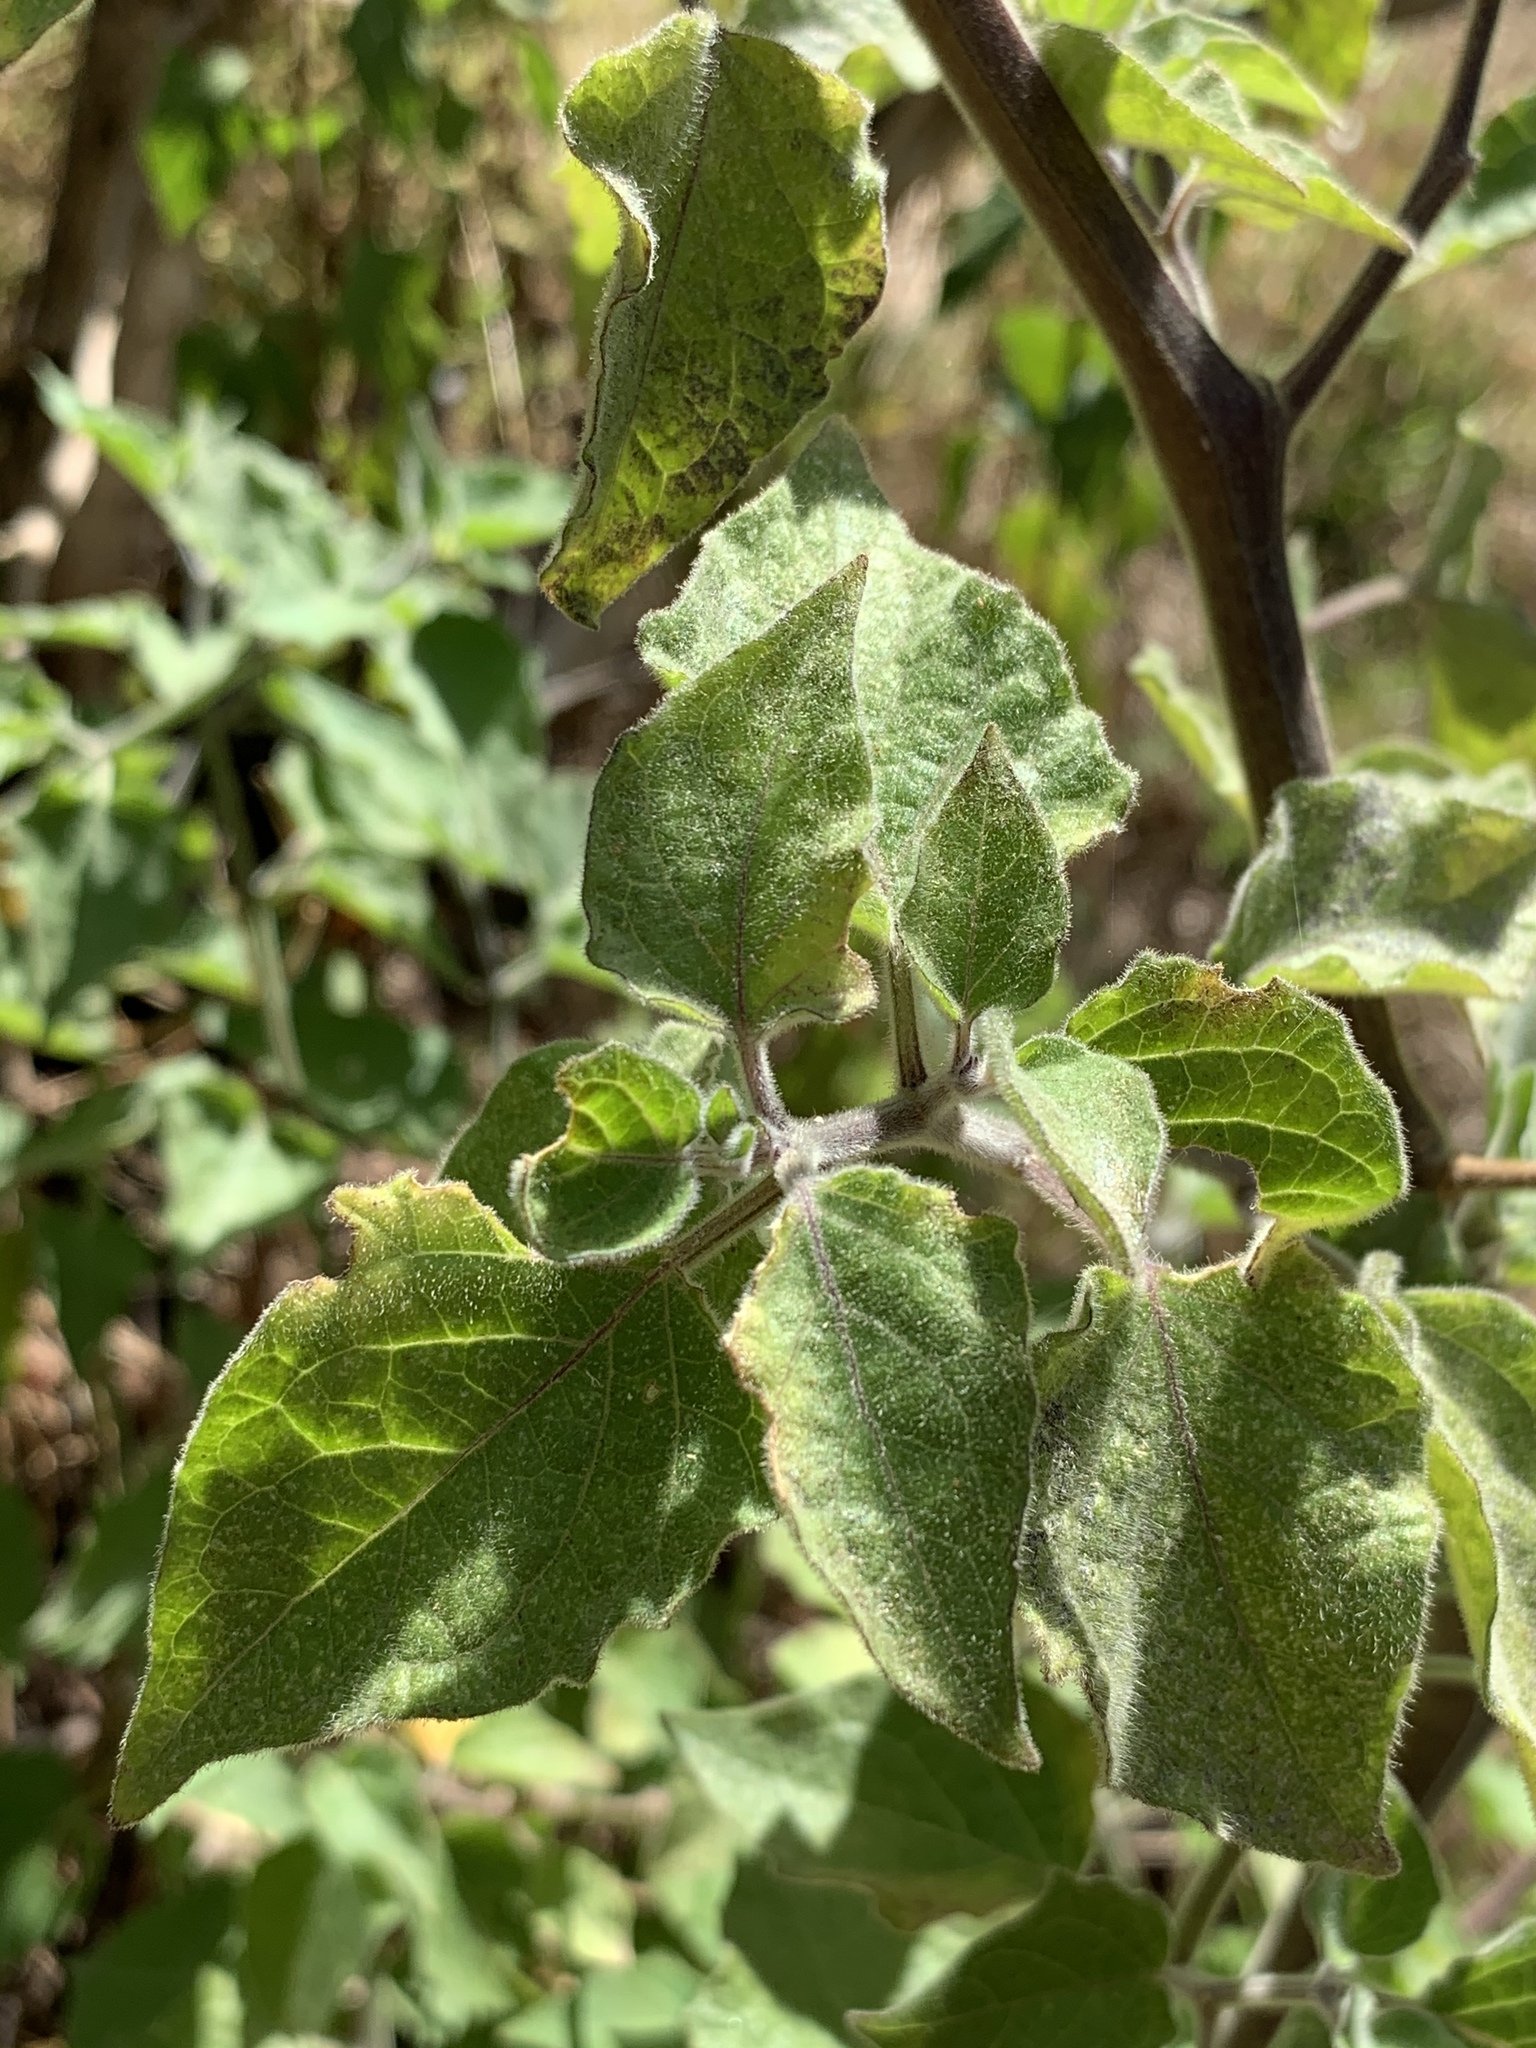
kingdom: Plantae
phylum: Tracheophyta
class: Magnoliopsida
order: Solanales
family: Solanaceae
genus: Physalis
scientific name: Physalis peruviana
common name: Cape-gooseberry
